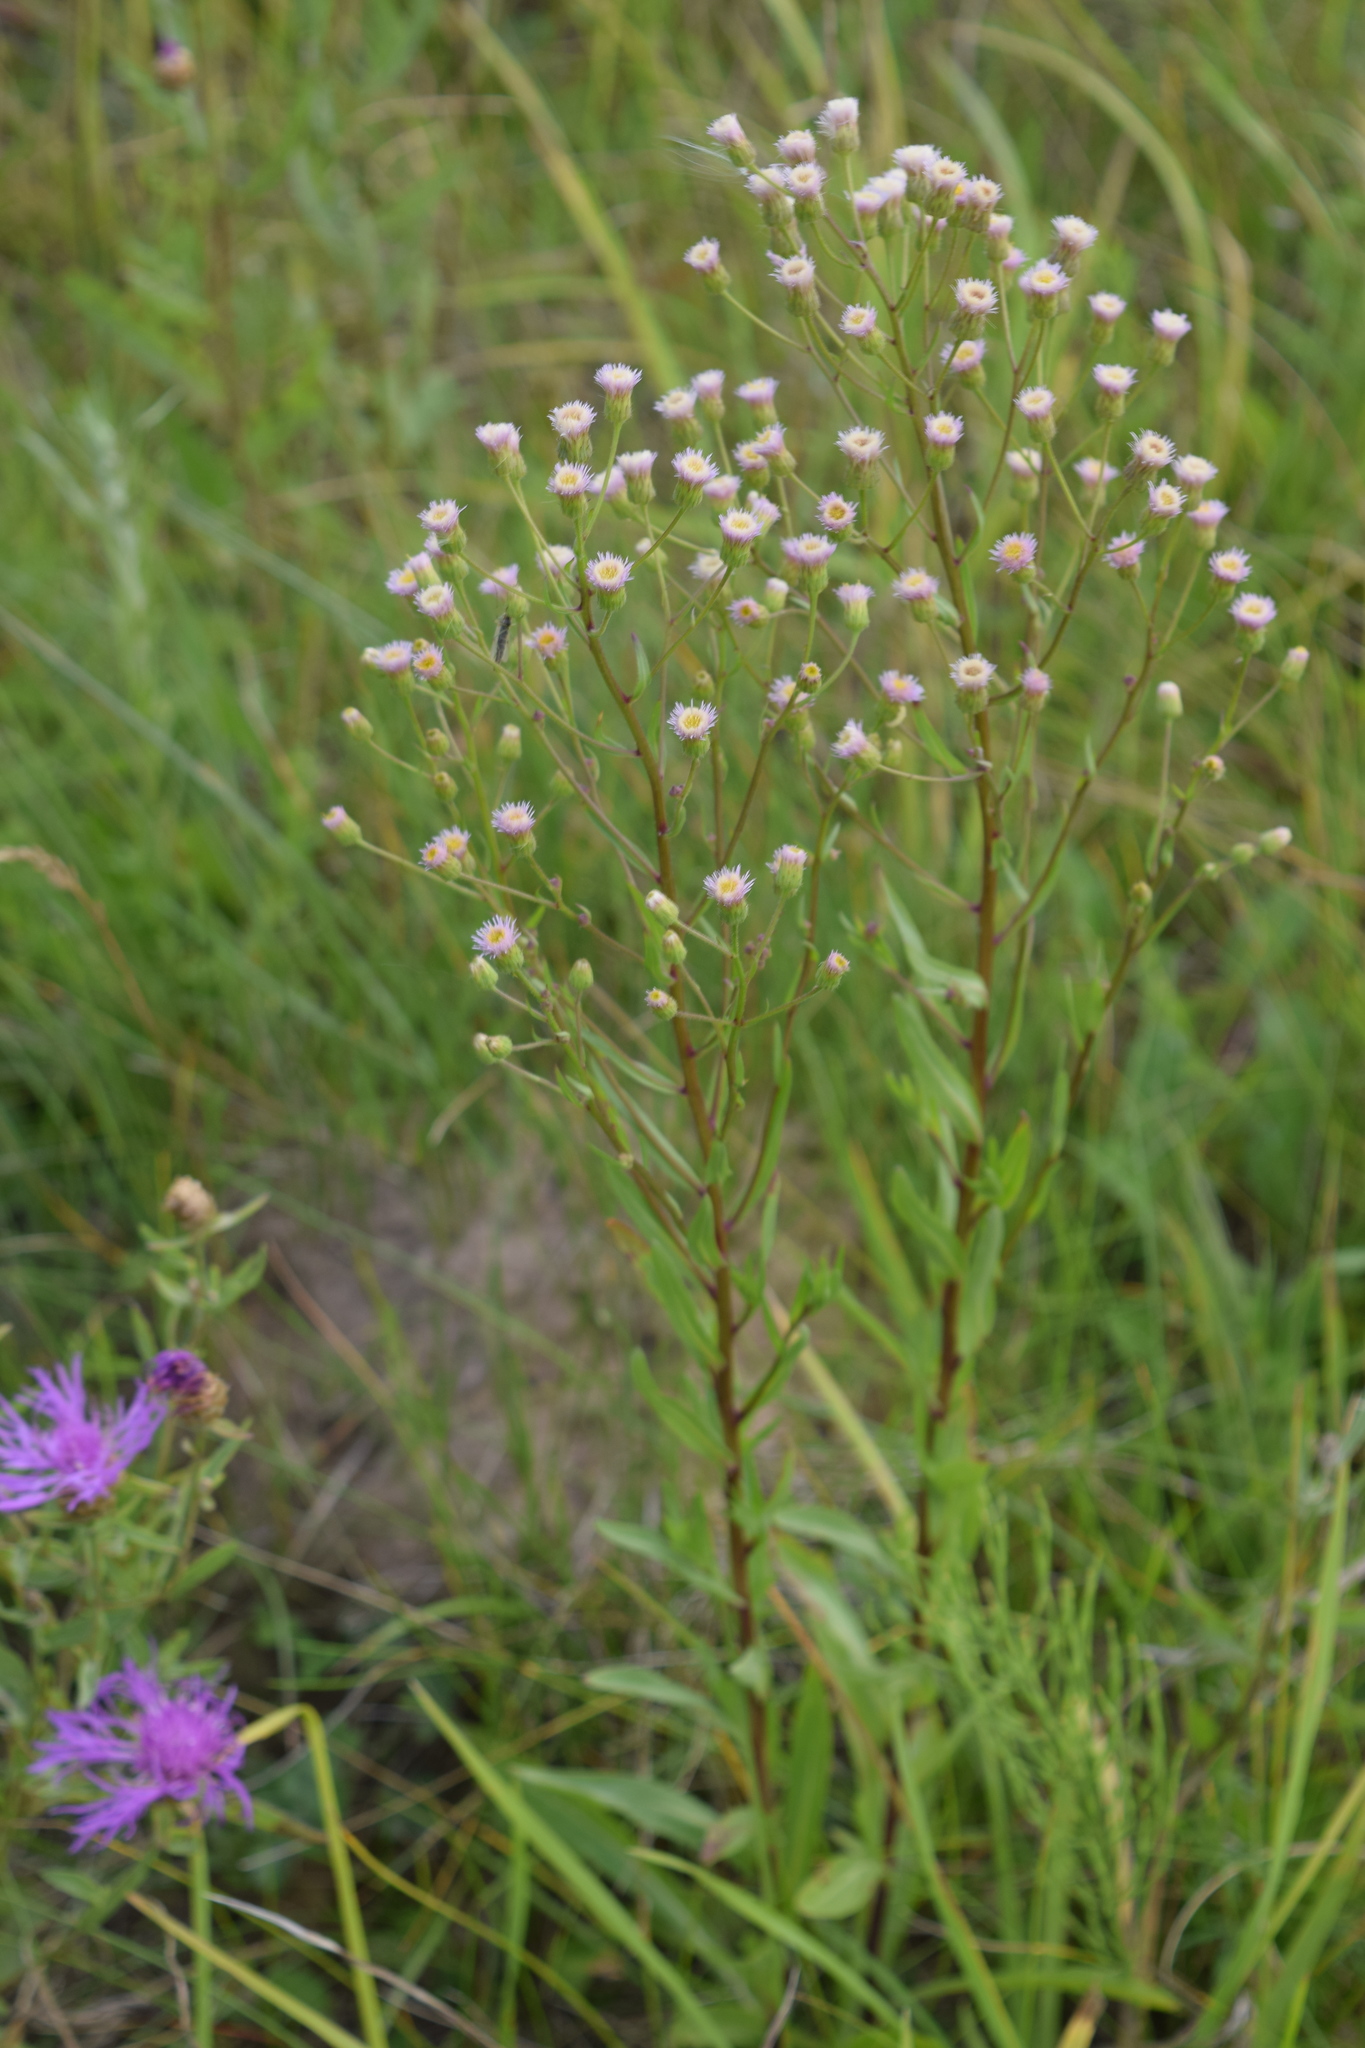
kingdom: Plantae
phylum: Tracheophyta
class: Magnoliopsida
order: Asterales
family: Asteraceae
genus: Erigeron
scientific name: Erigeron acris
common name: Blue fleabane
